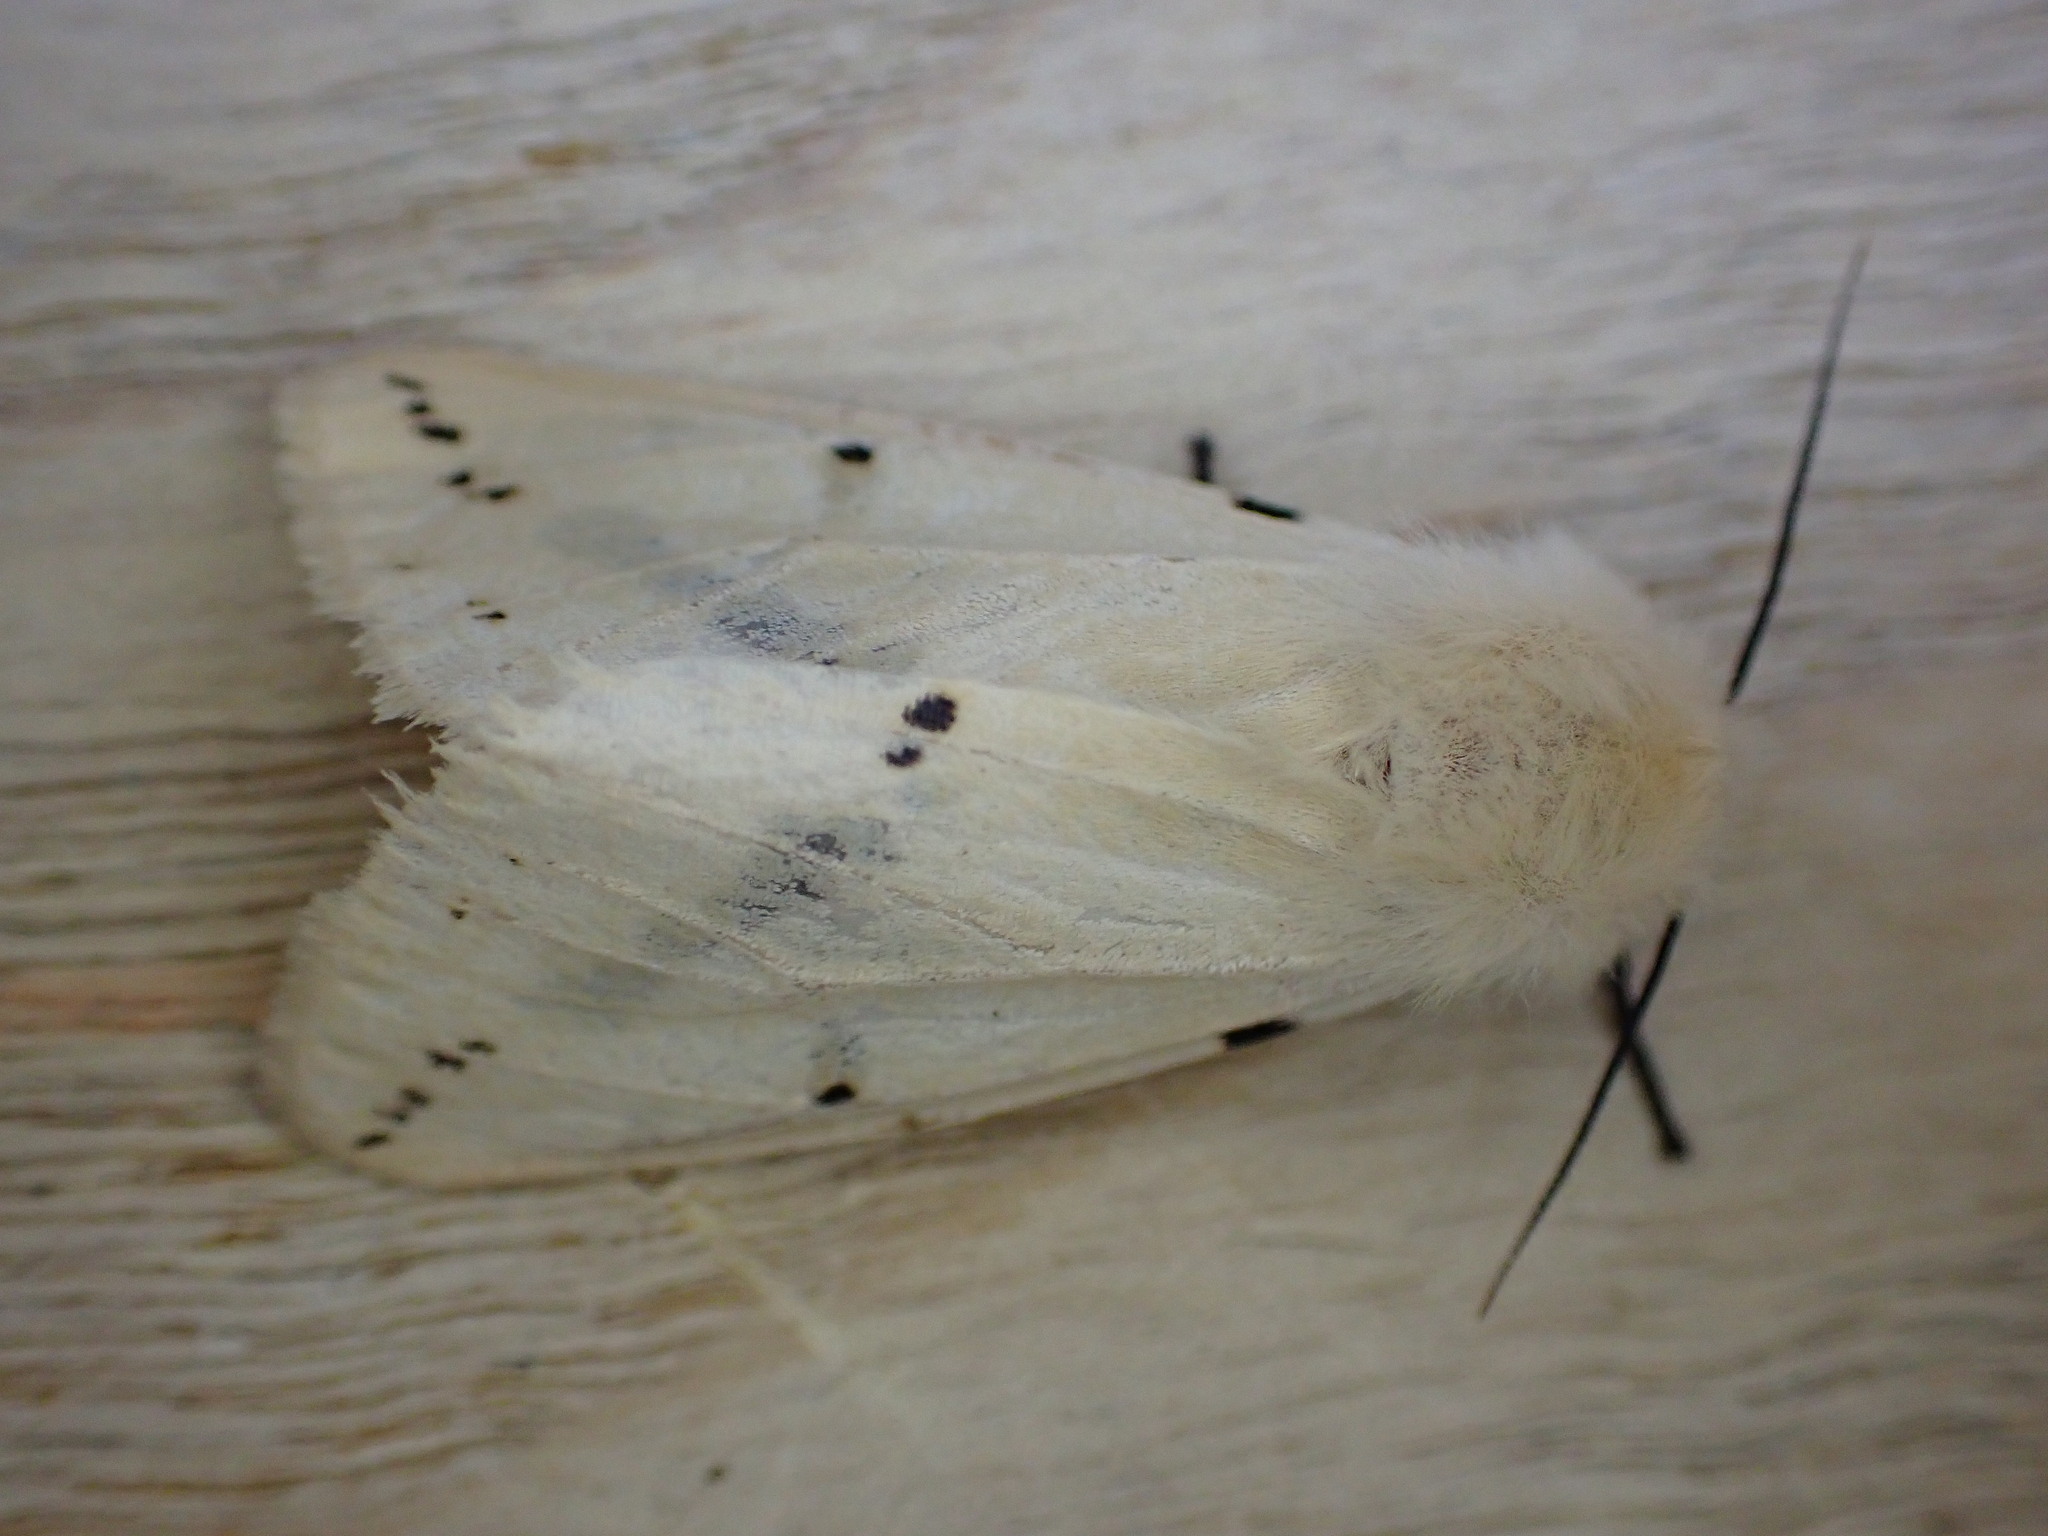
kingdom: Animalia
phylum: Arthropoda
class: Insecta
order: Lepidoptera
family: Erebidae
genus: Spilarctia
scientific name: Spilarctia lutea
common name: Buff ermine
